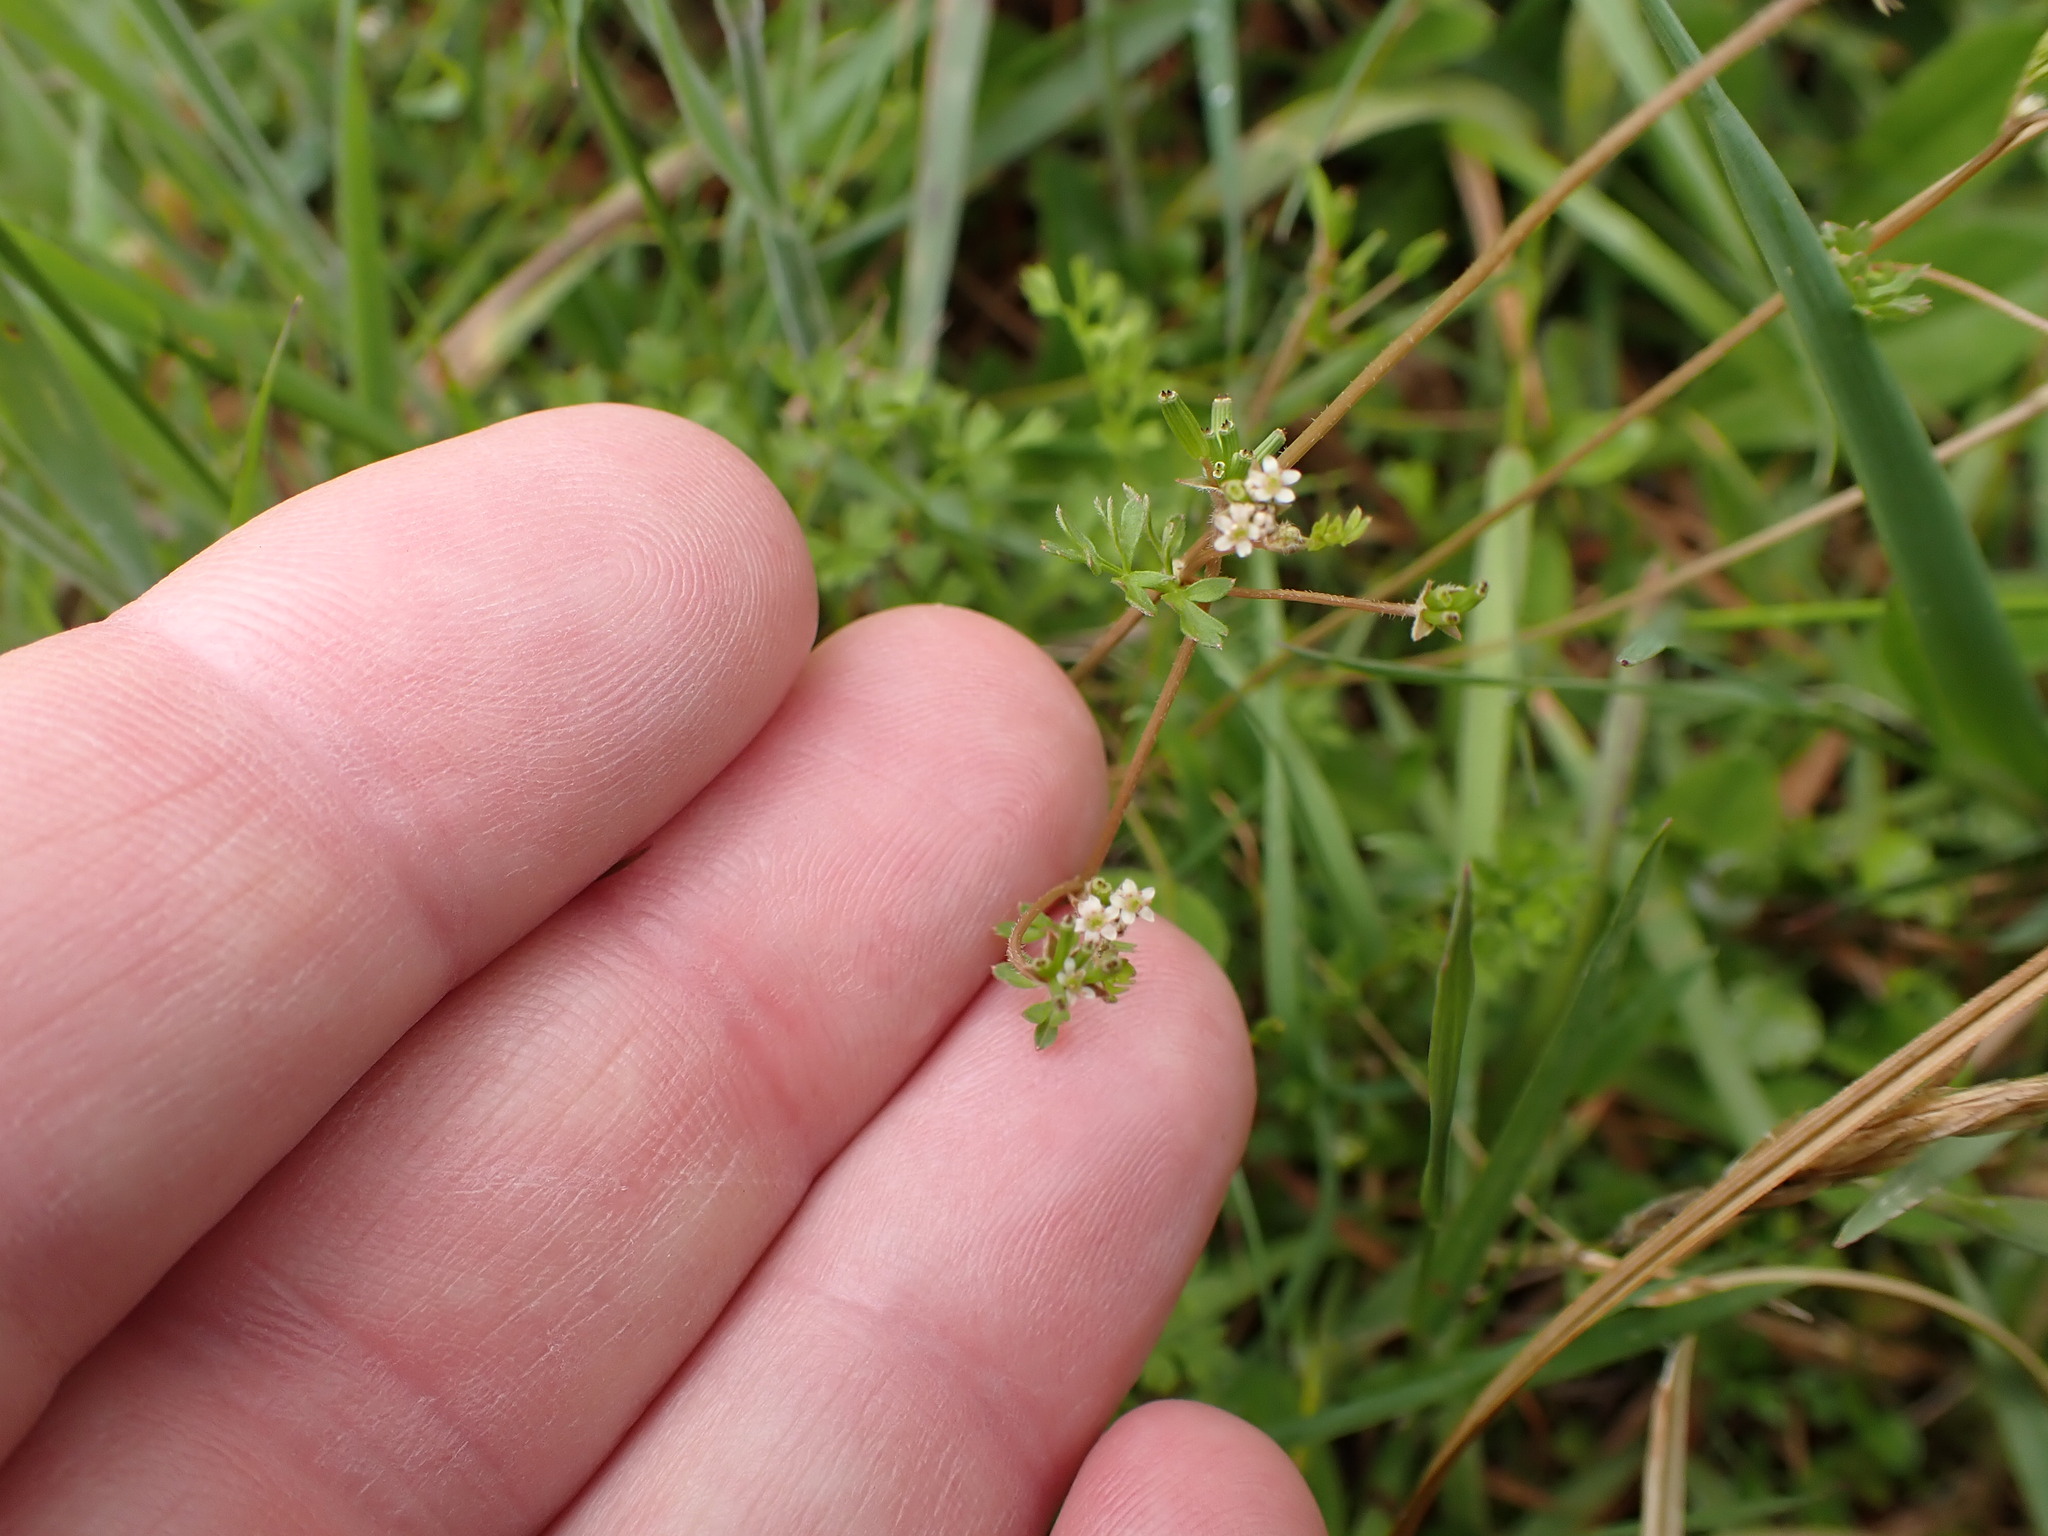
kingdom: Plantae
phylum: Tracheophyta
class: Magnoliopsida
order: Apiales
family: Apiaceae
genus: Chaerophyllum
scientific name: Chaerophyllum ramosum
